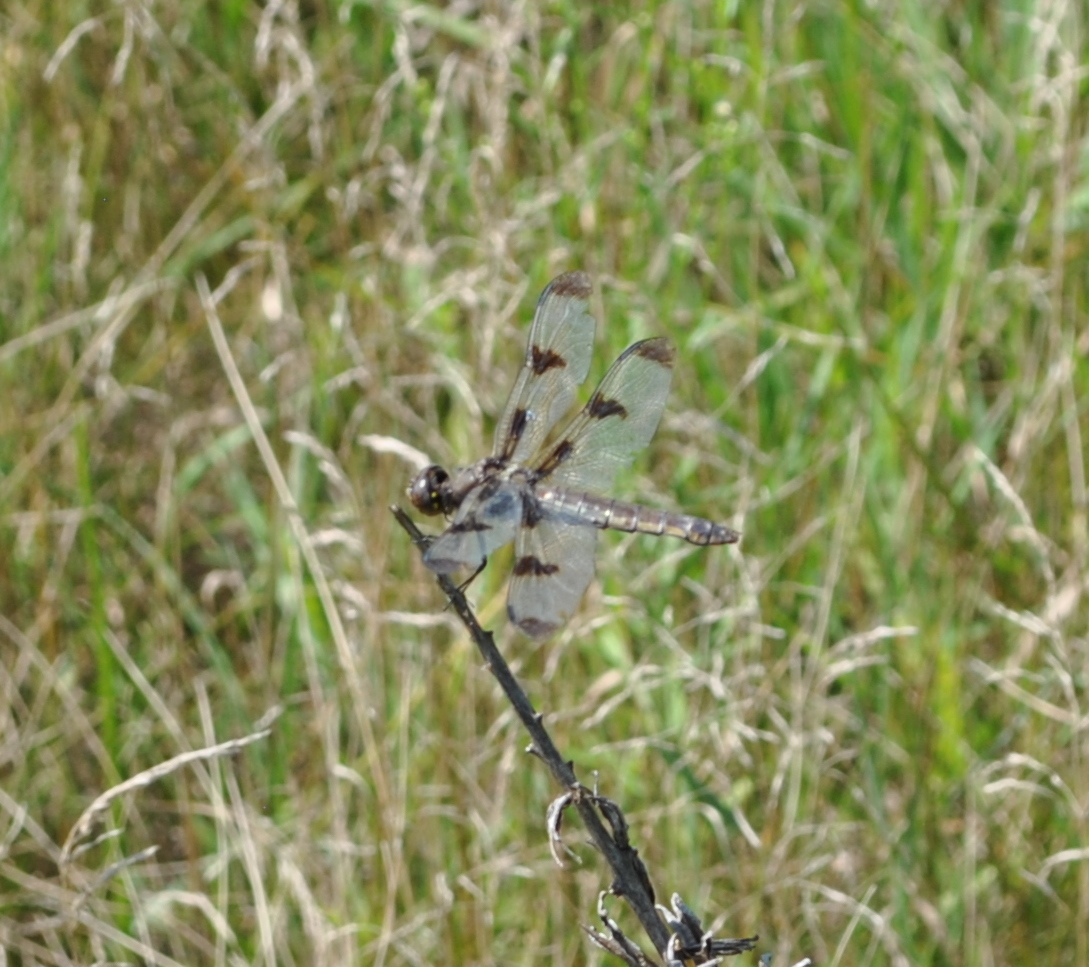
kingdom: Animalia
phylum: Arthropoda
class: Insecta
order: Odonata
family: Libellulidae
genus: Libellula
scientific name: Libellula pulchella
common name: Twelve-spotted skimmer
